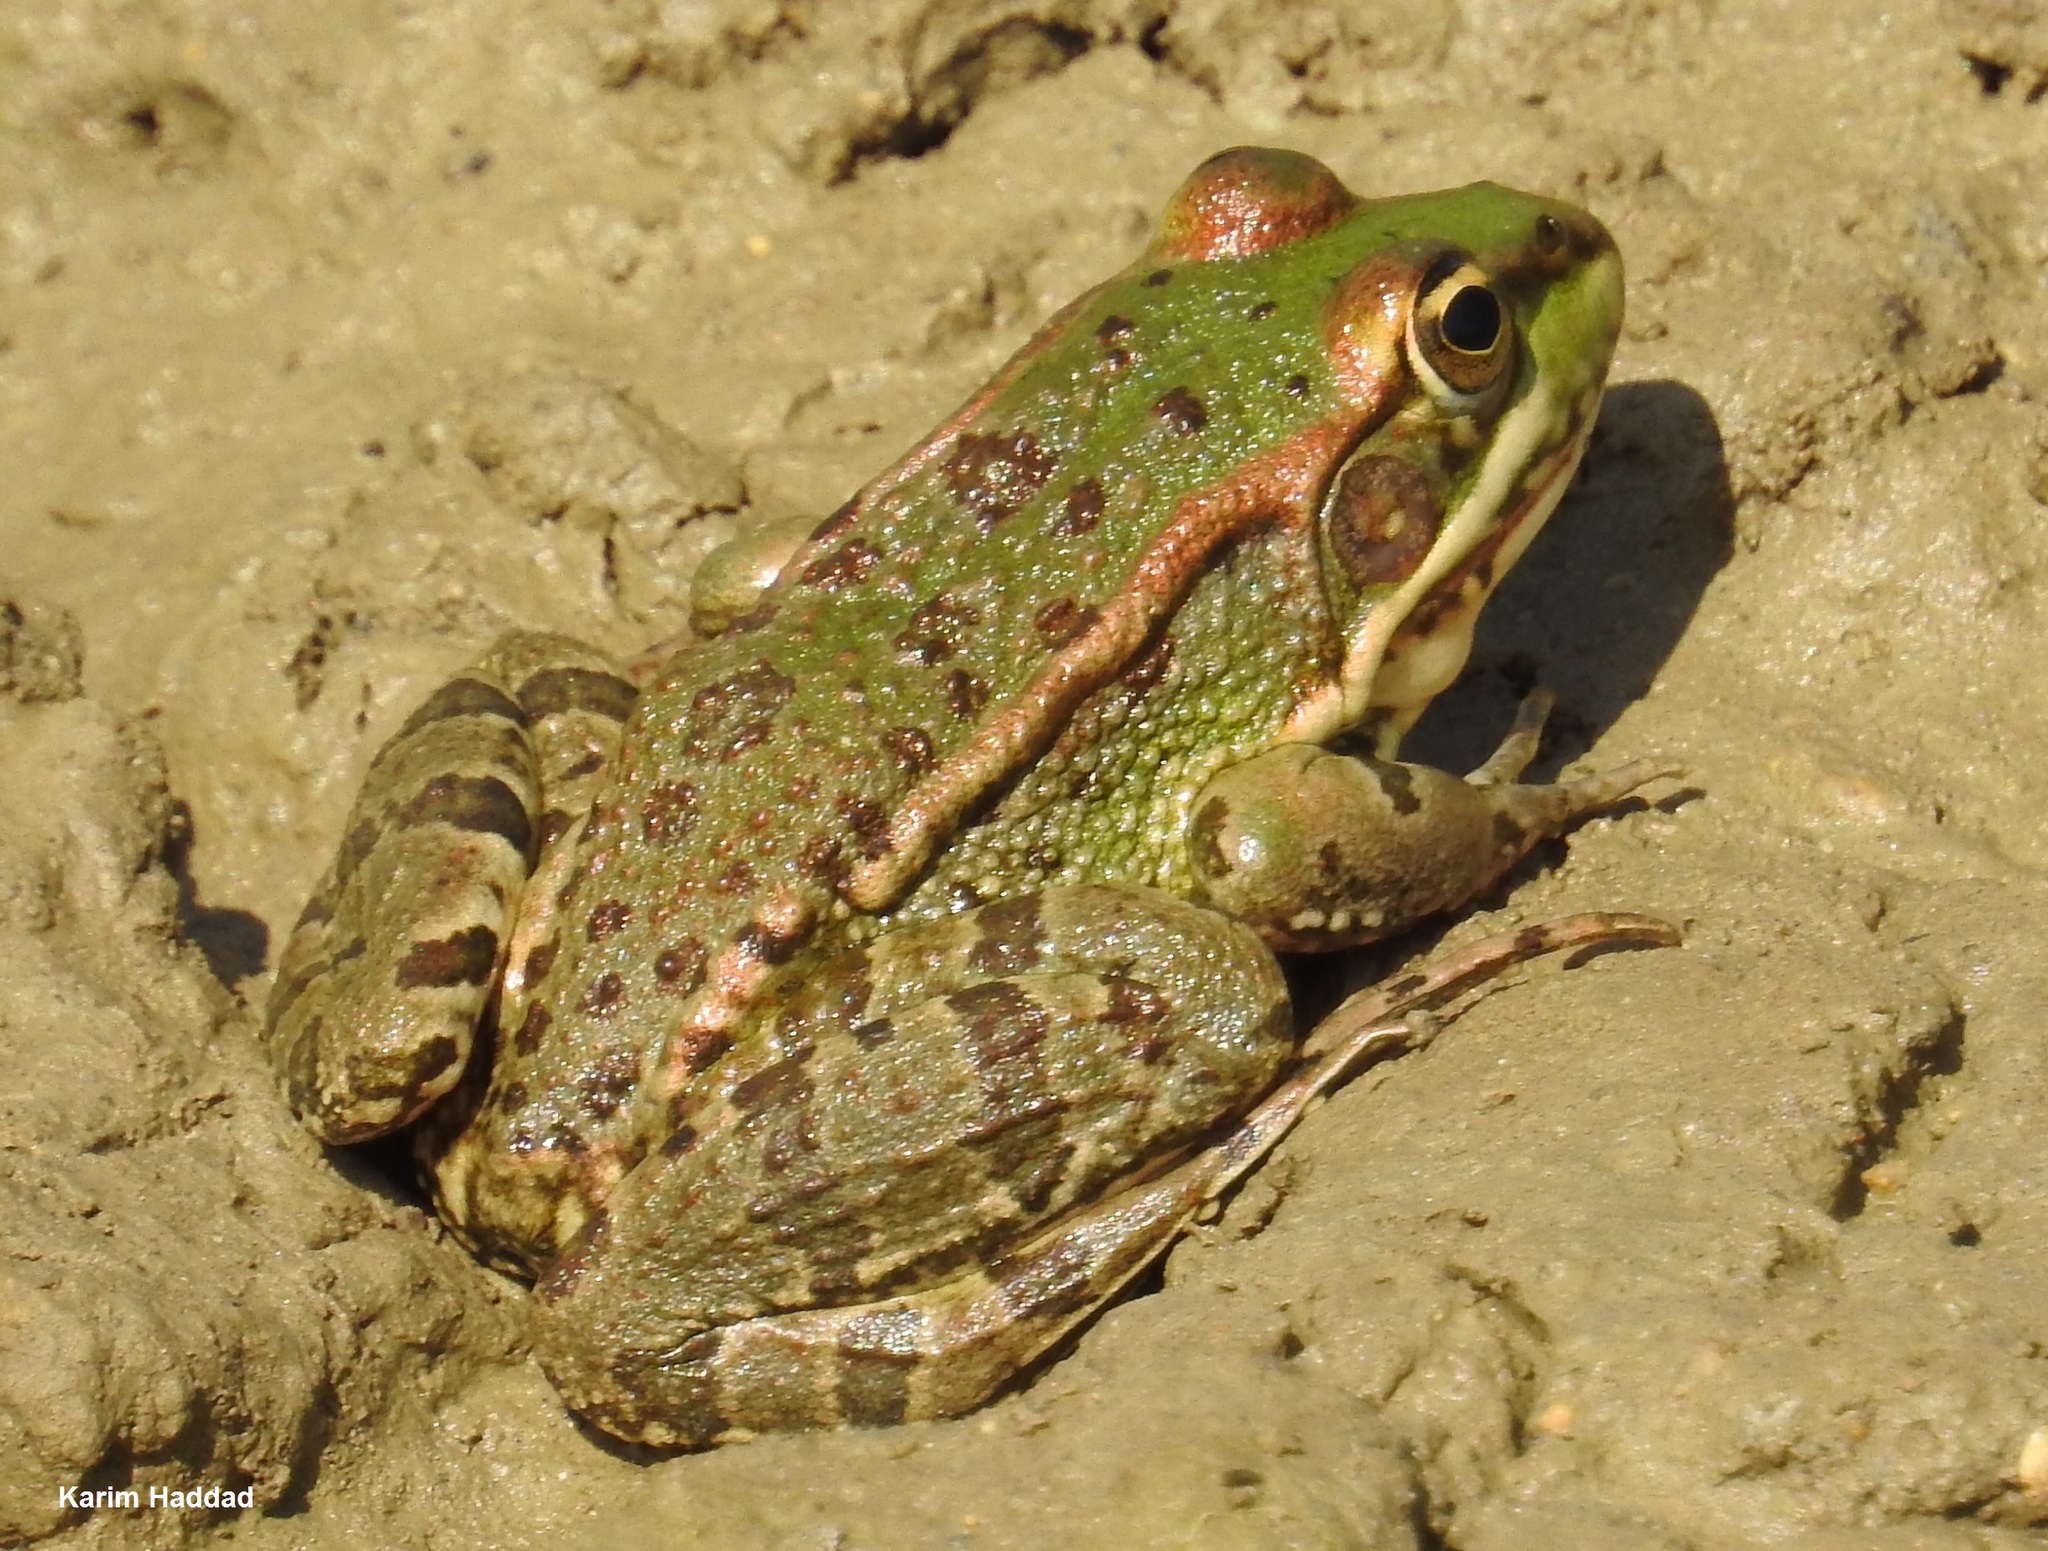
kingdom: Animalia
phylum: Chordata
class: Amphibia
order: Anura
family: Ranidae
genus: Pelophylax
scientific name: Pelophylax saharicus
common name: Sahara frog
